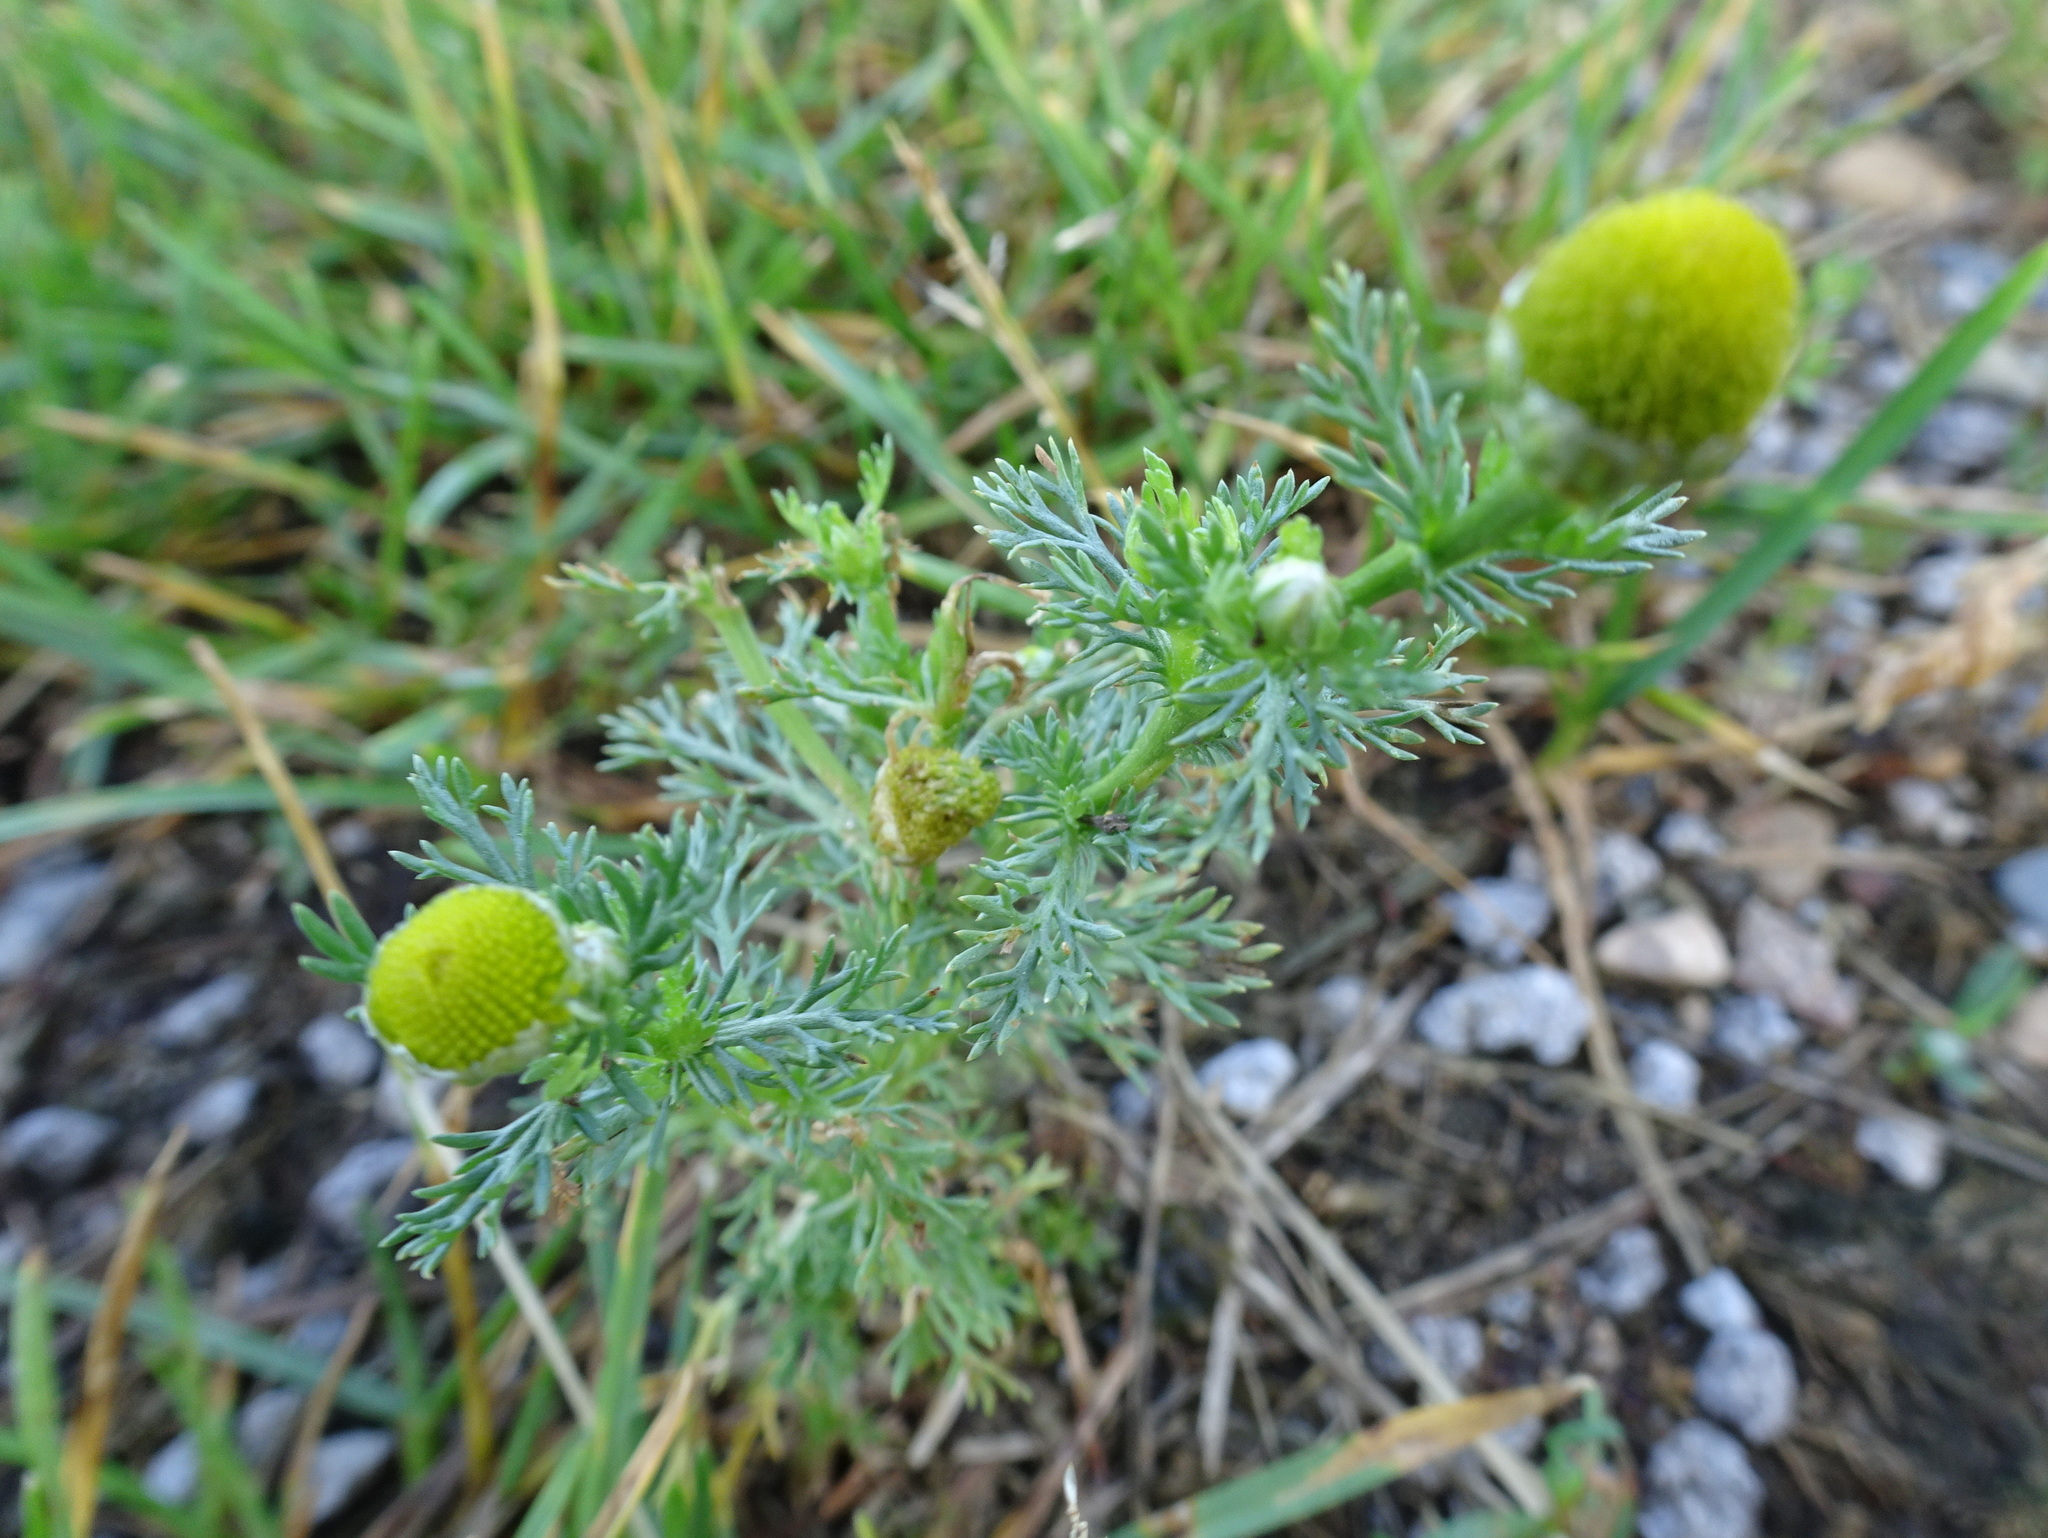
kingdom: Plantae
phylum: Tracheophyta
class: Magnoliopsida
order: Asterales
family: Asteraceae
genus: Matricaria
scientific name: Matricaria discoidea
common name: Disc mayweed
